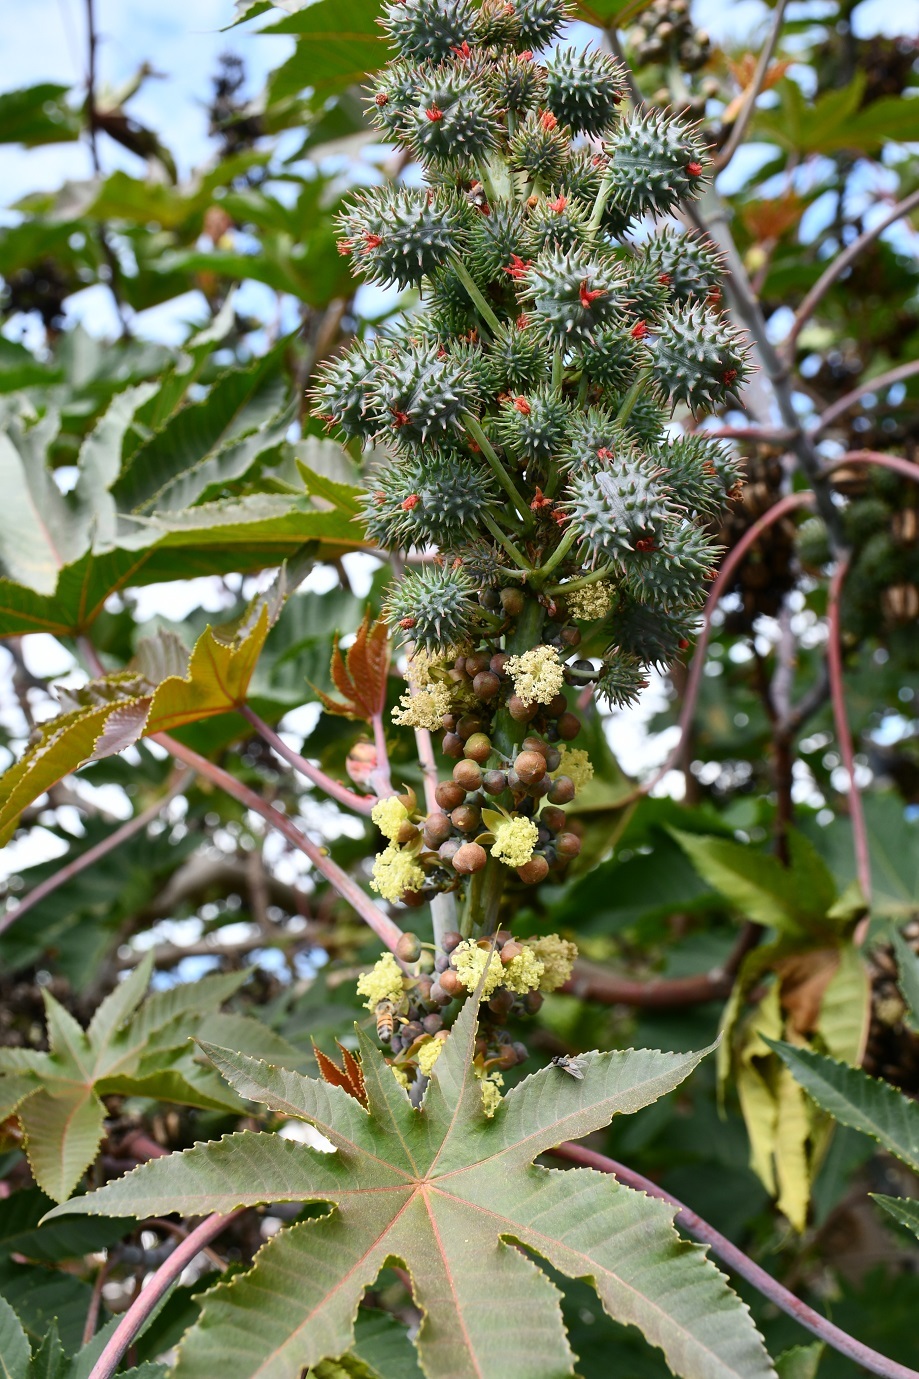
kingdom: Plantae
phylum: Tracheophyta
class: Magnoliopsida
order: Malpighiales
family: Euphorbiaceae
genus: Ricinus
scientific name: Ricinus communis
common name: Castor-oil-plant
